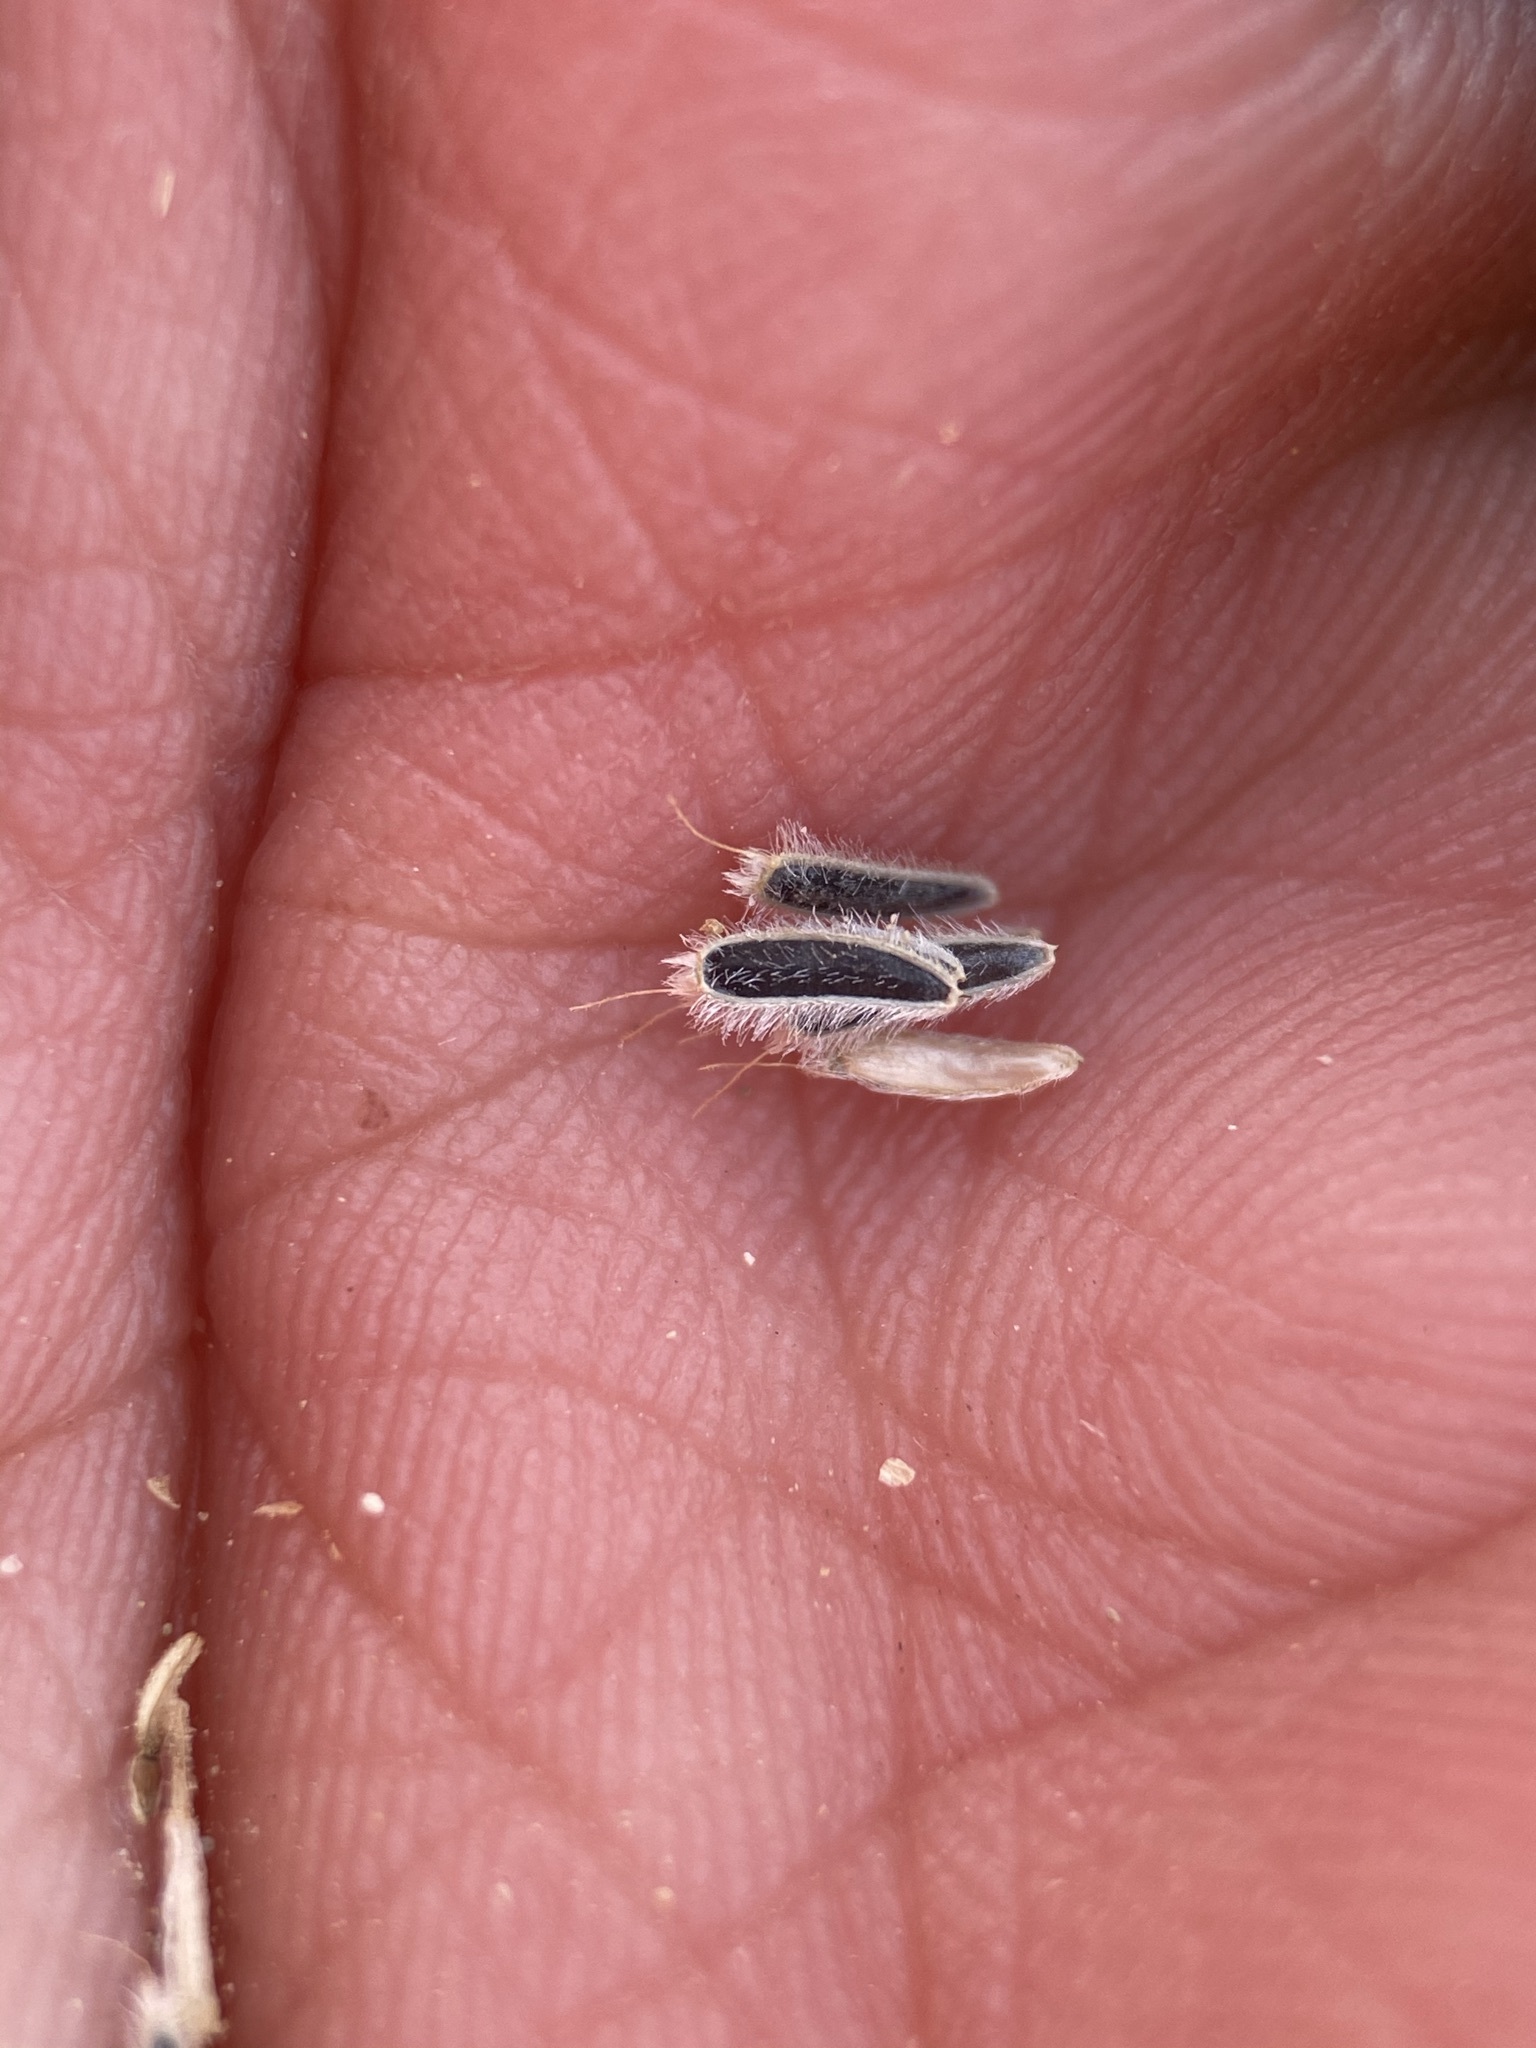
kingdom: Plantae
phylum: Tracheophyta
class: Magnoliopsida
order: Asterales
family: Asteraceae
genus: Laphamia
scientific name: Laphamia vaseyi
